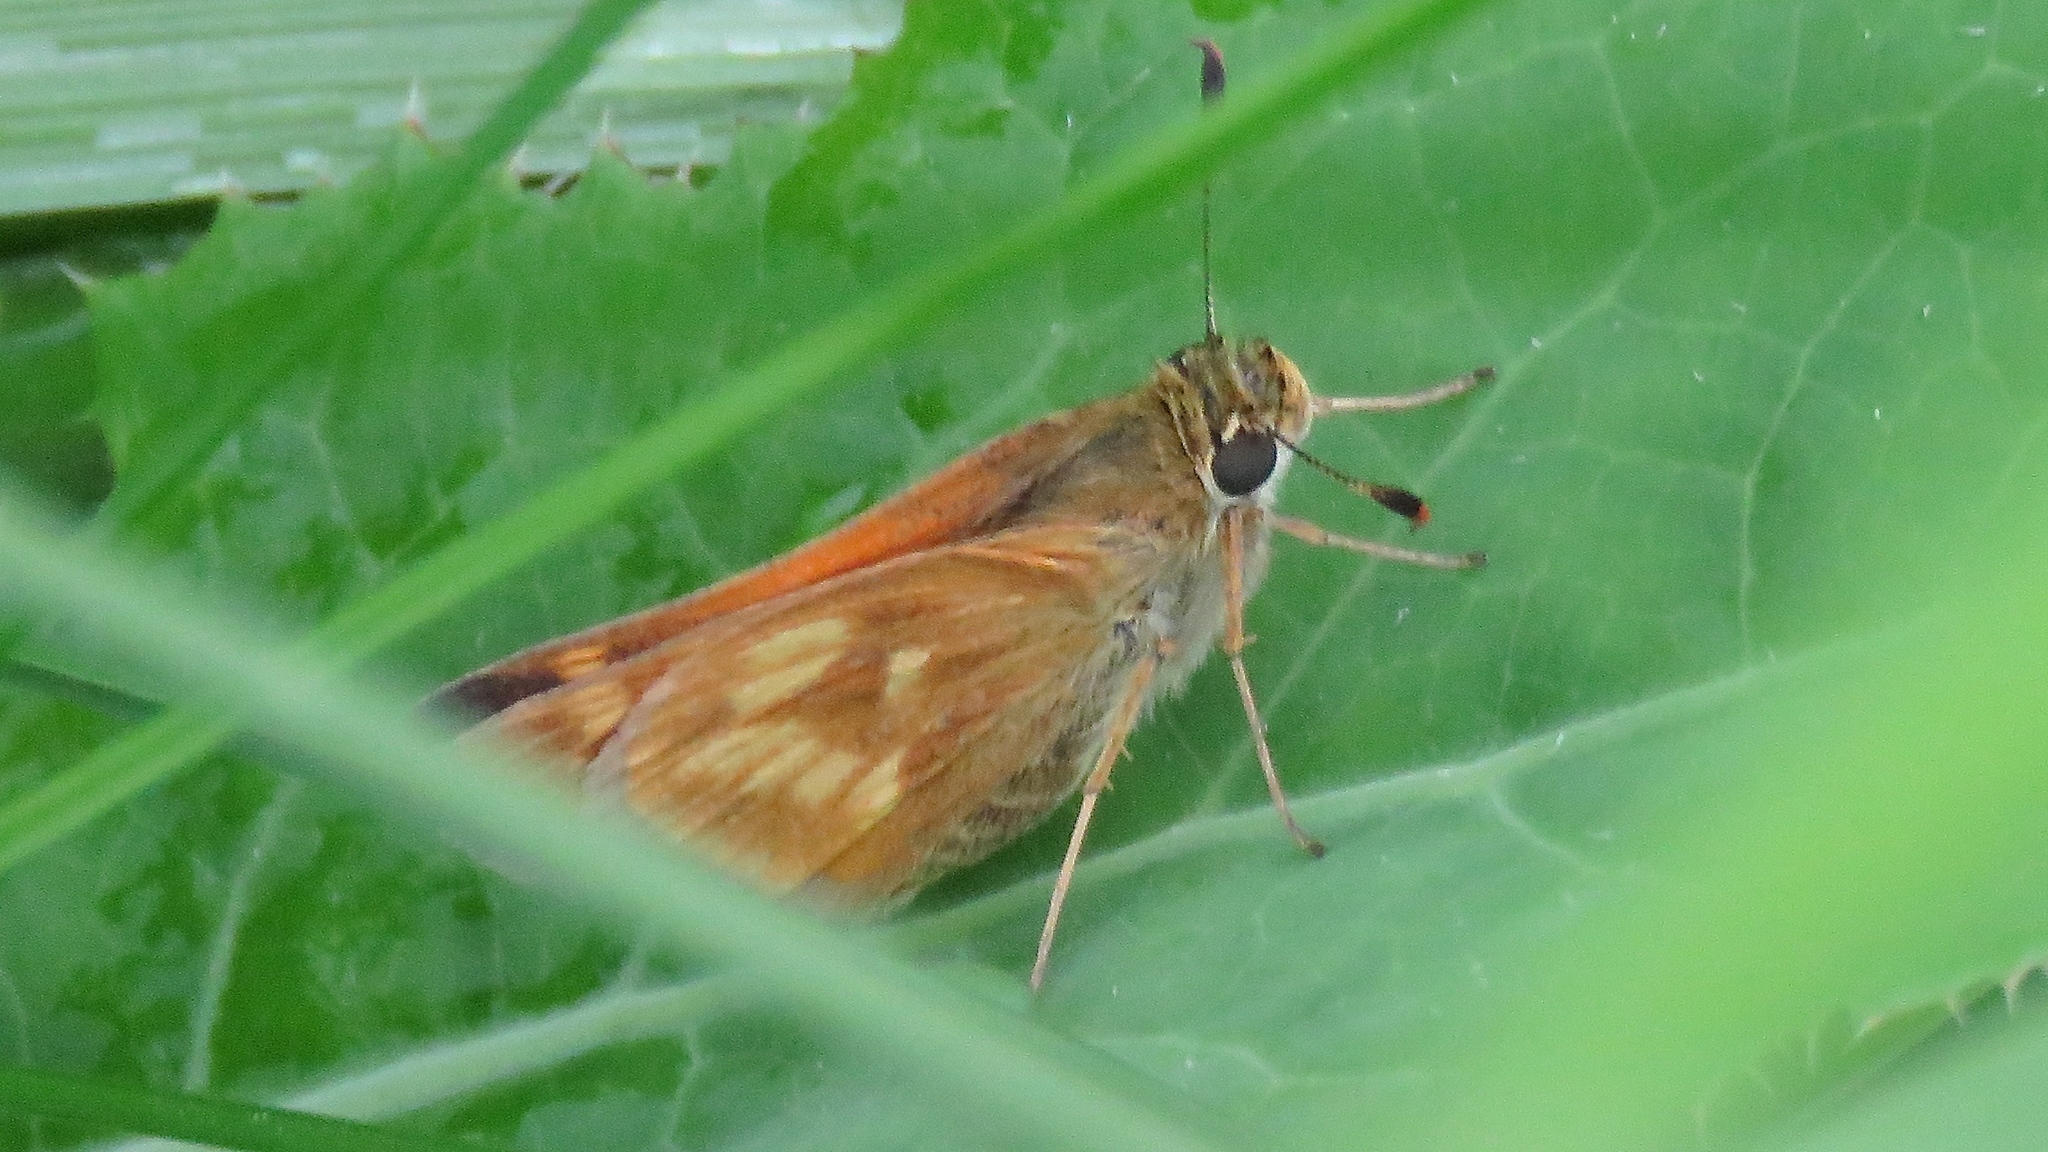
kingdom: Animalia
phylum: Arthropoda
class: Insecta
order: Lepidoptera
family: Hesperiidae
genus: Polites
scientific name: Polites mystic
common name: Long dash
